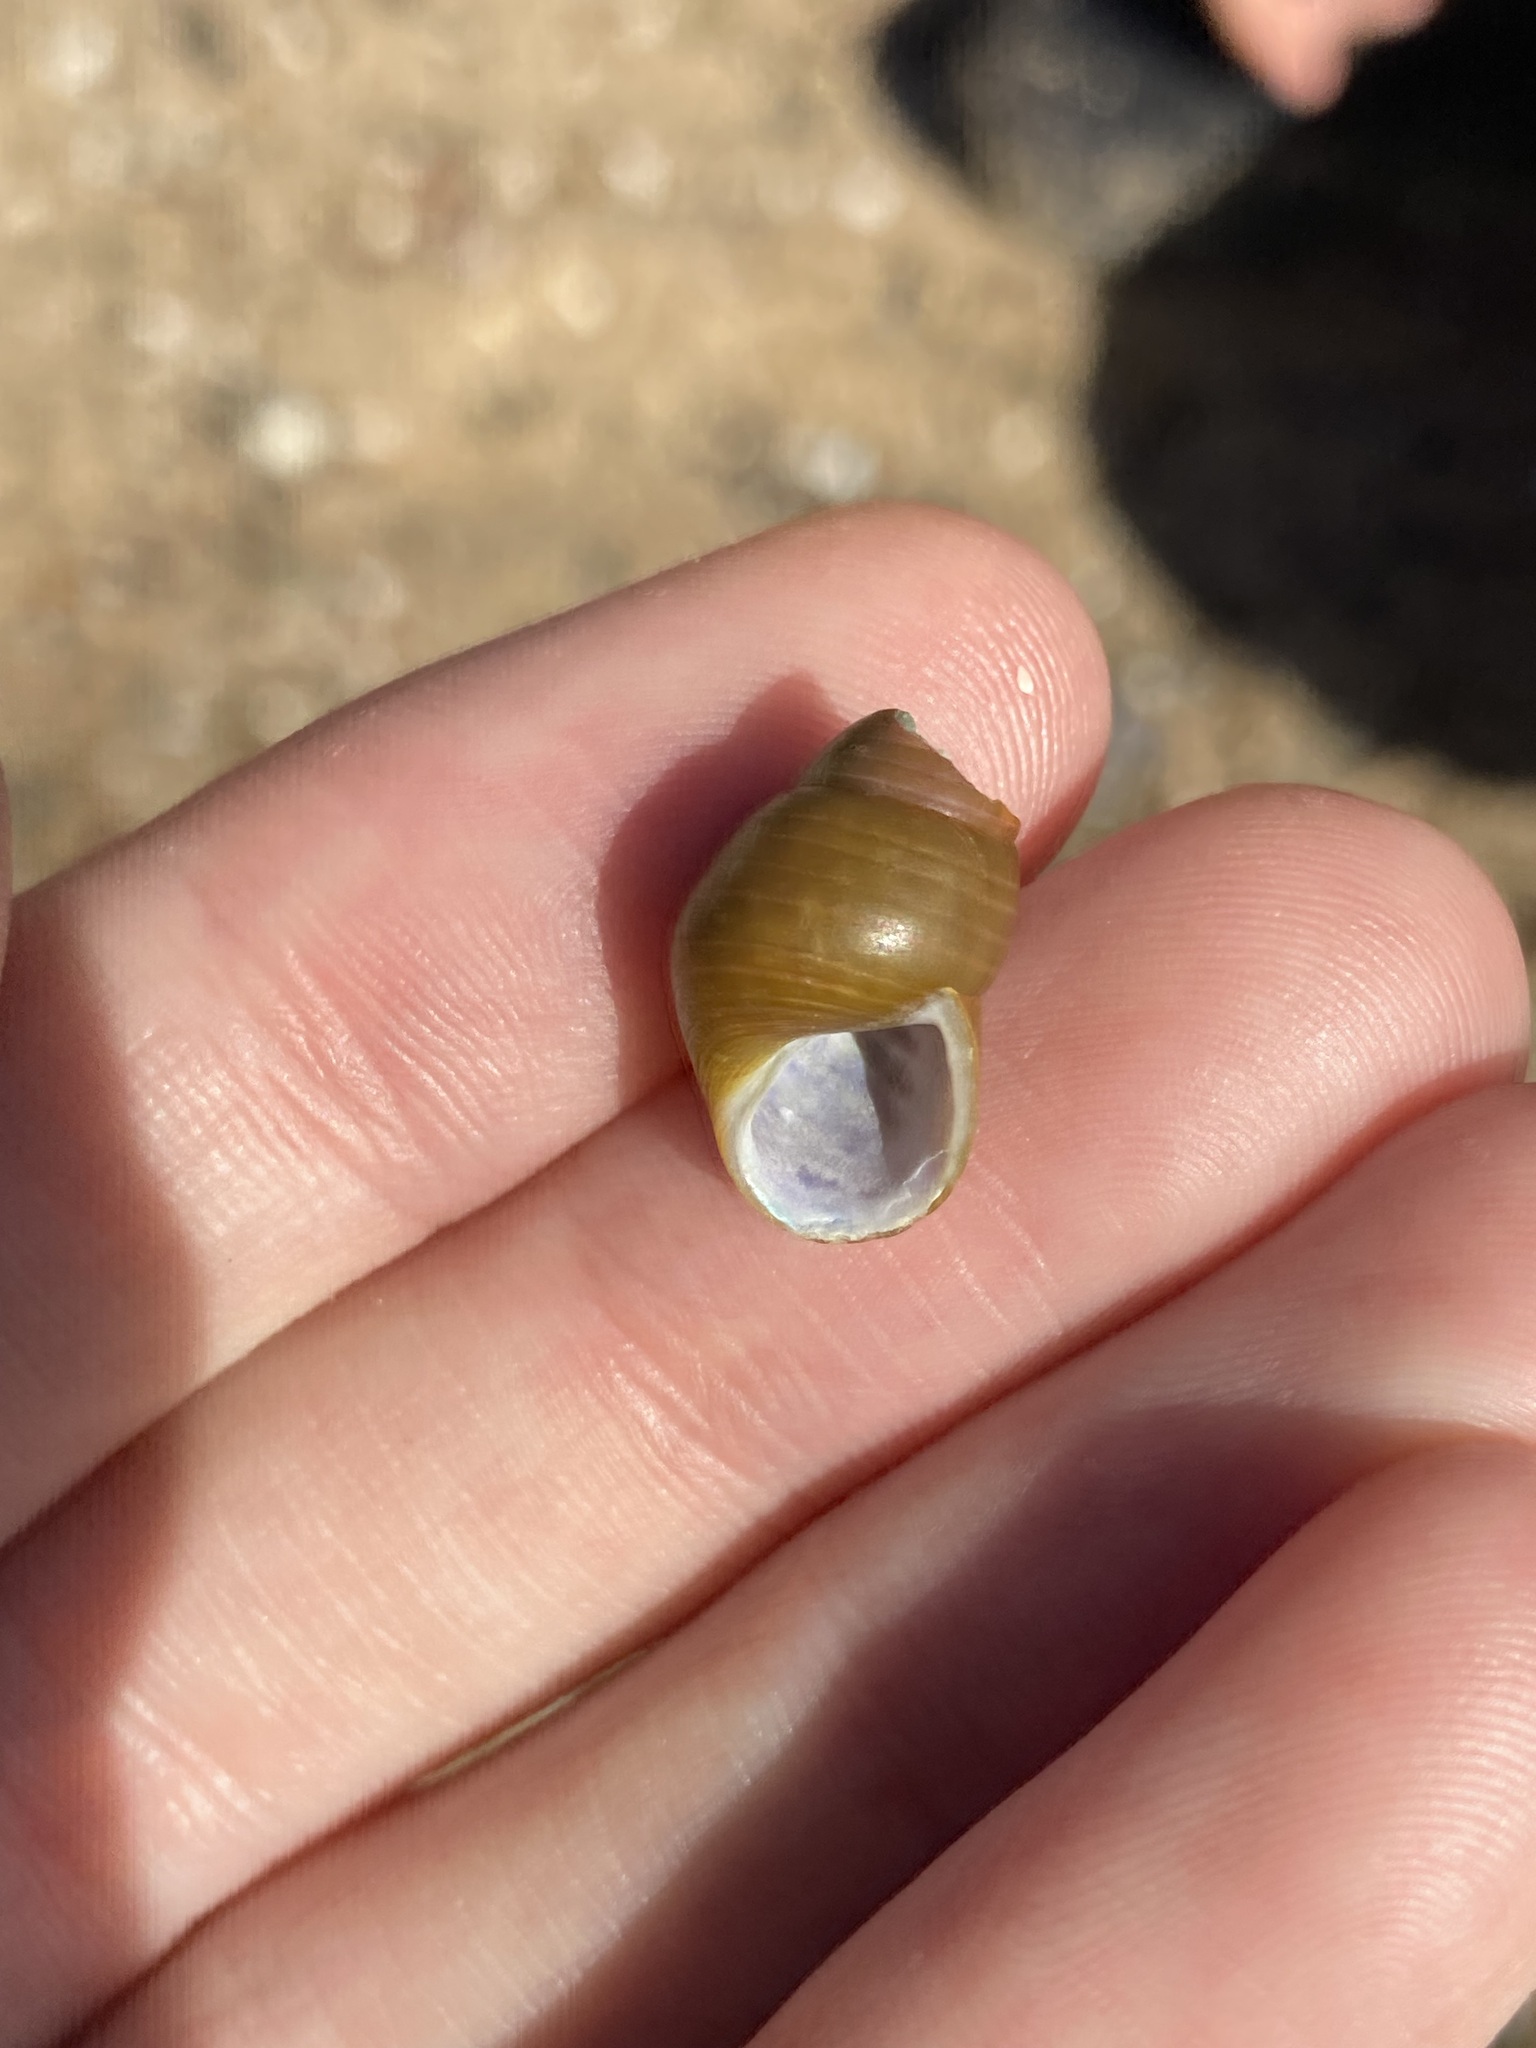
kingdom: Animalia
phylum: Mollusca
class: Gastropoda
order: Trochida
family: Trochidae
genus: Phasianotrochus
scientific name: Phasianotrochus eximius
